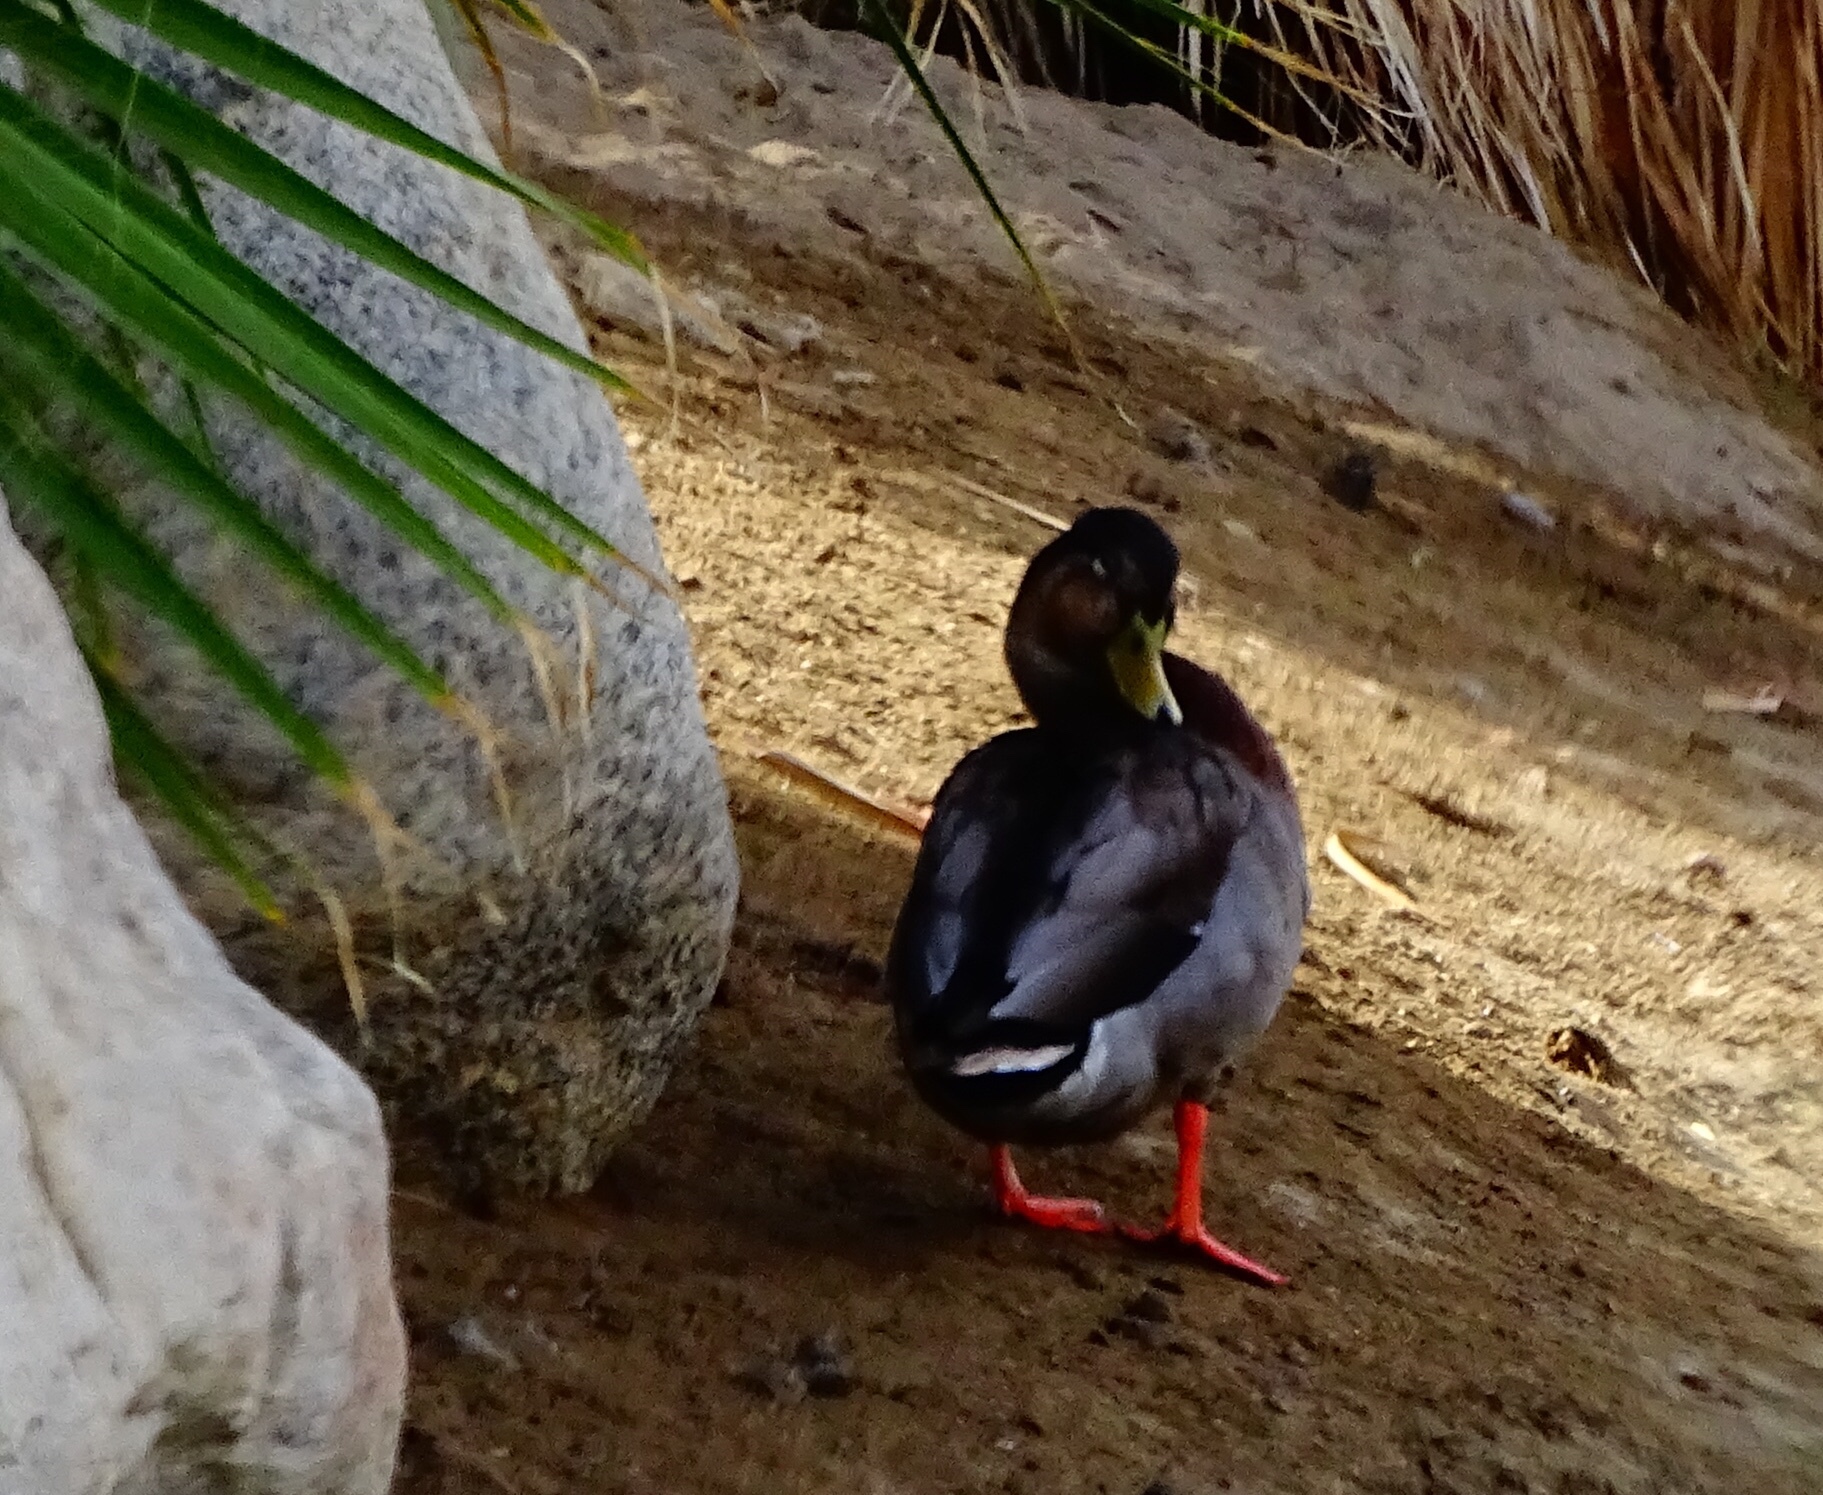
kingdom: Animalia
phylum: Chordata
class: Aves
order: Anseriformes
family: Anatidae
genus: Anas
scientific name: Anas platyrhynchos
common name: Mallard
